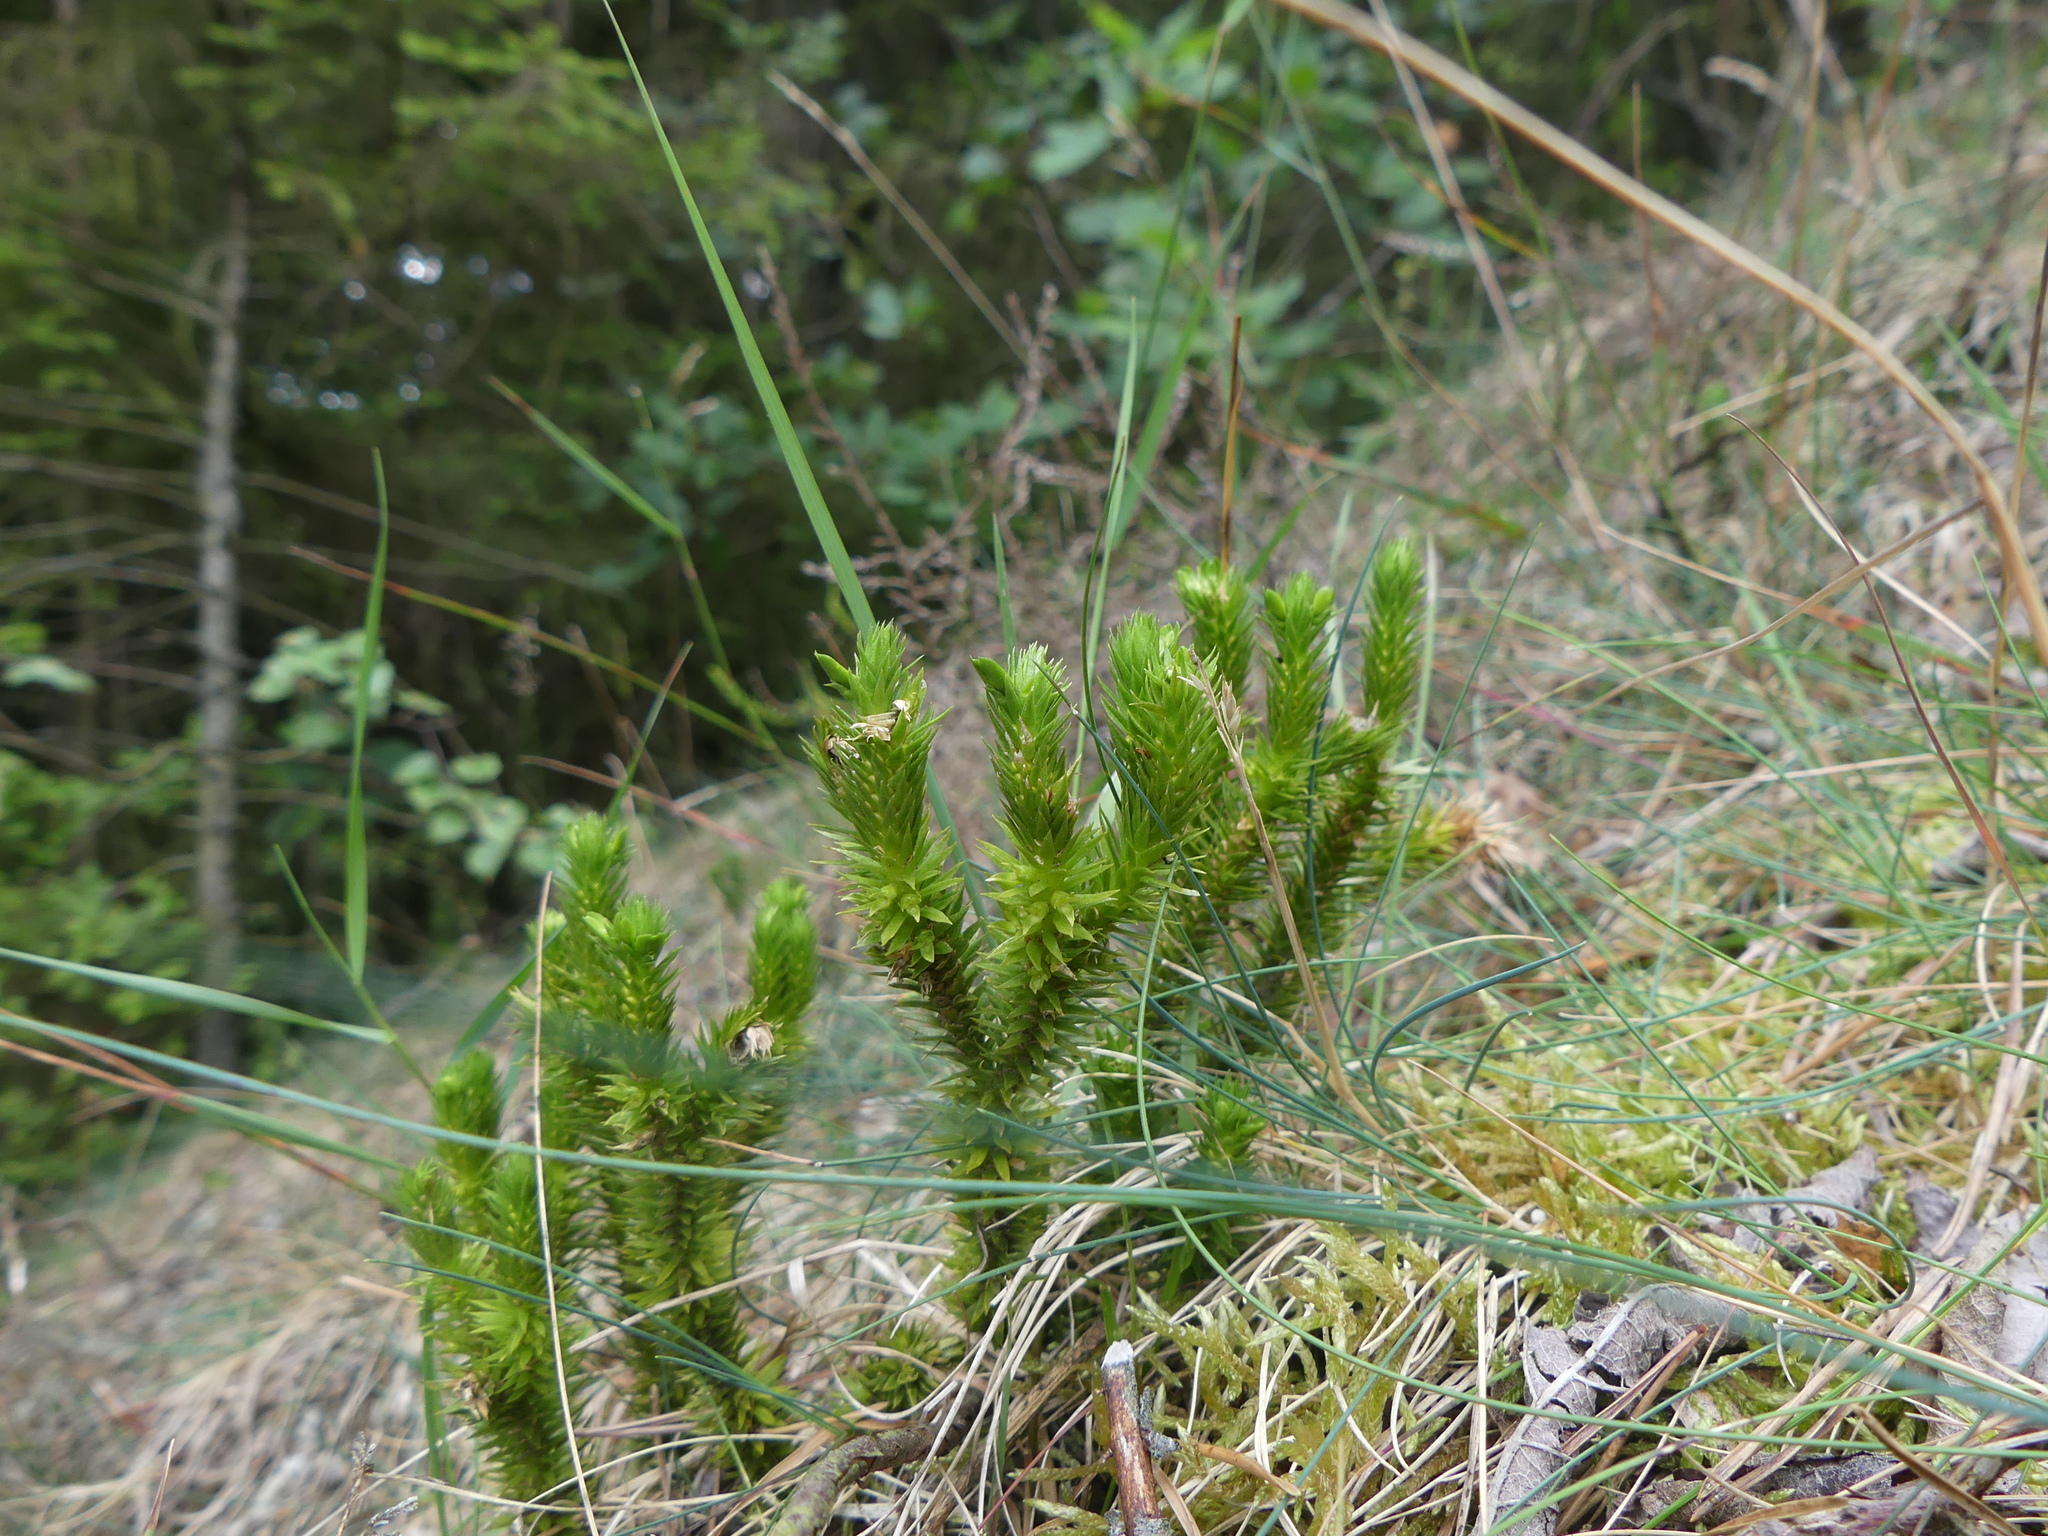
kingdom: Plantae
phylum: Tracheophyta
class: Lycopodiopsida
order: Lycopodiales
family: Lycopodiaceae
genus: Huperzia
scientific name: Huperzia selago
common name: Northern firmoss
